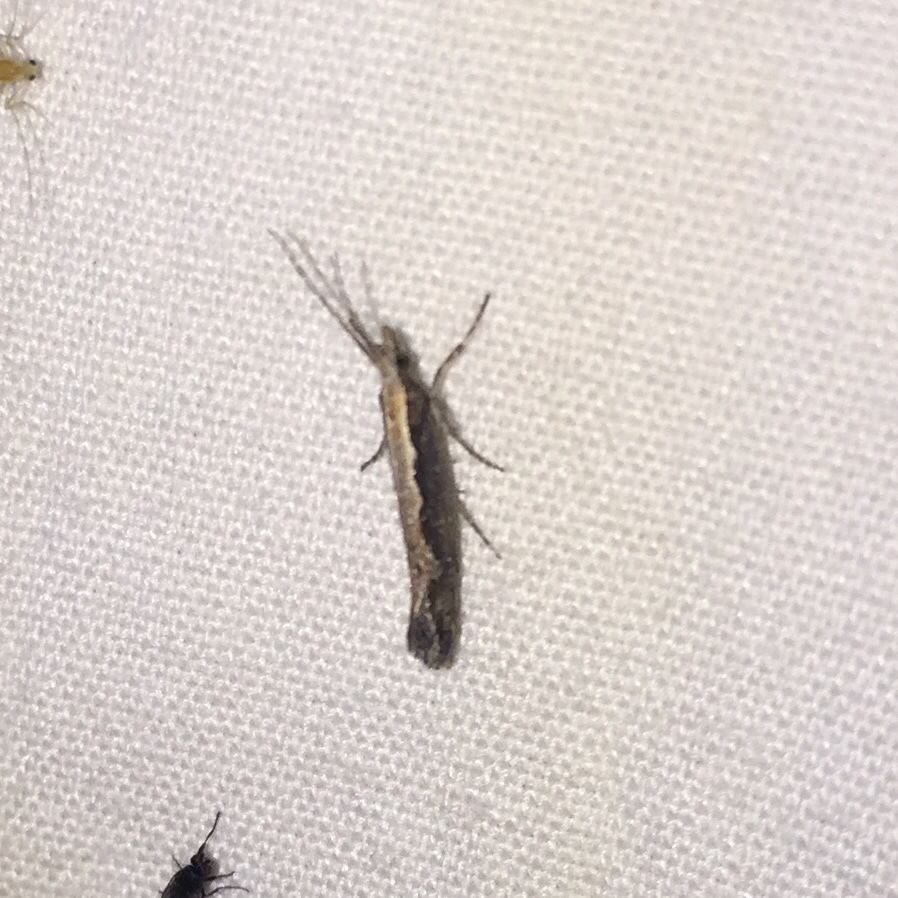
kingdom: Animalia
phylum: Arthropoda
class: Insecta
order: Lepidoptera
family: Plutellidae
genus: Plutella
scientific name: Plutella xylostella
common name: Diamond-back moth
